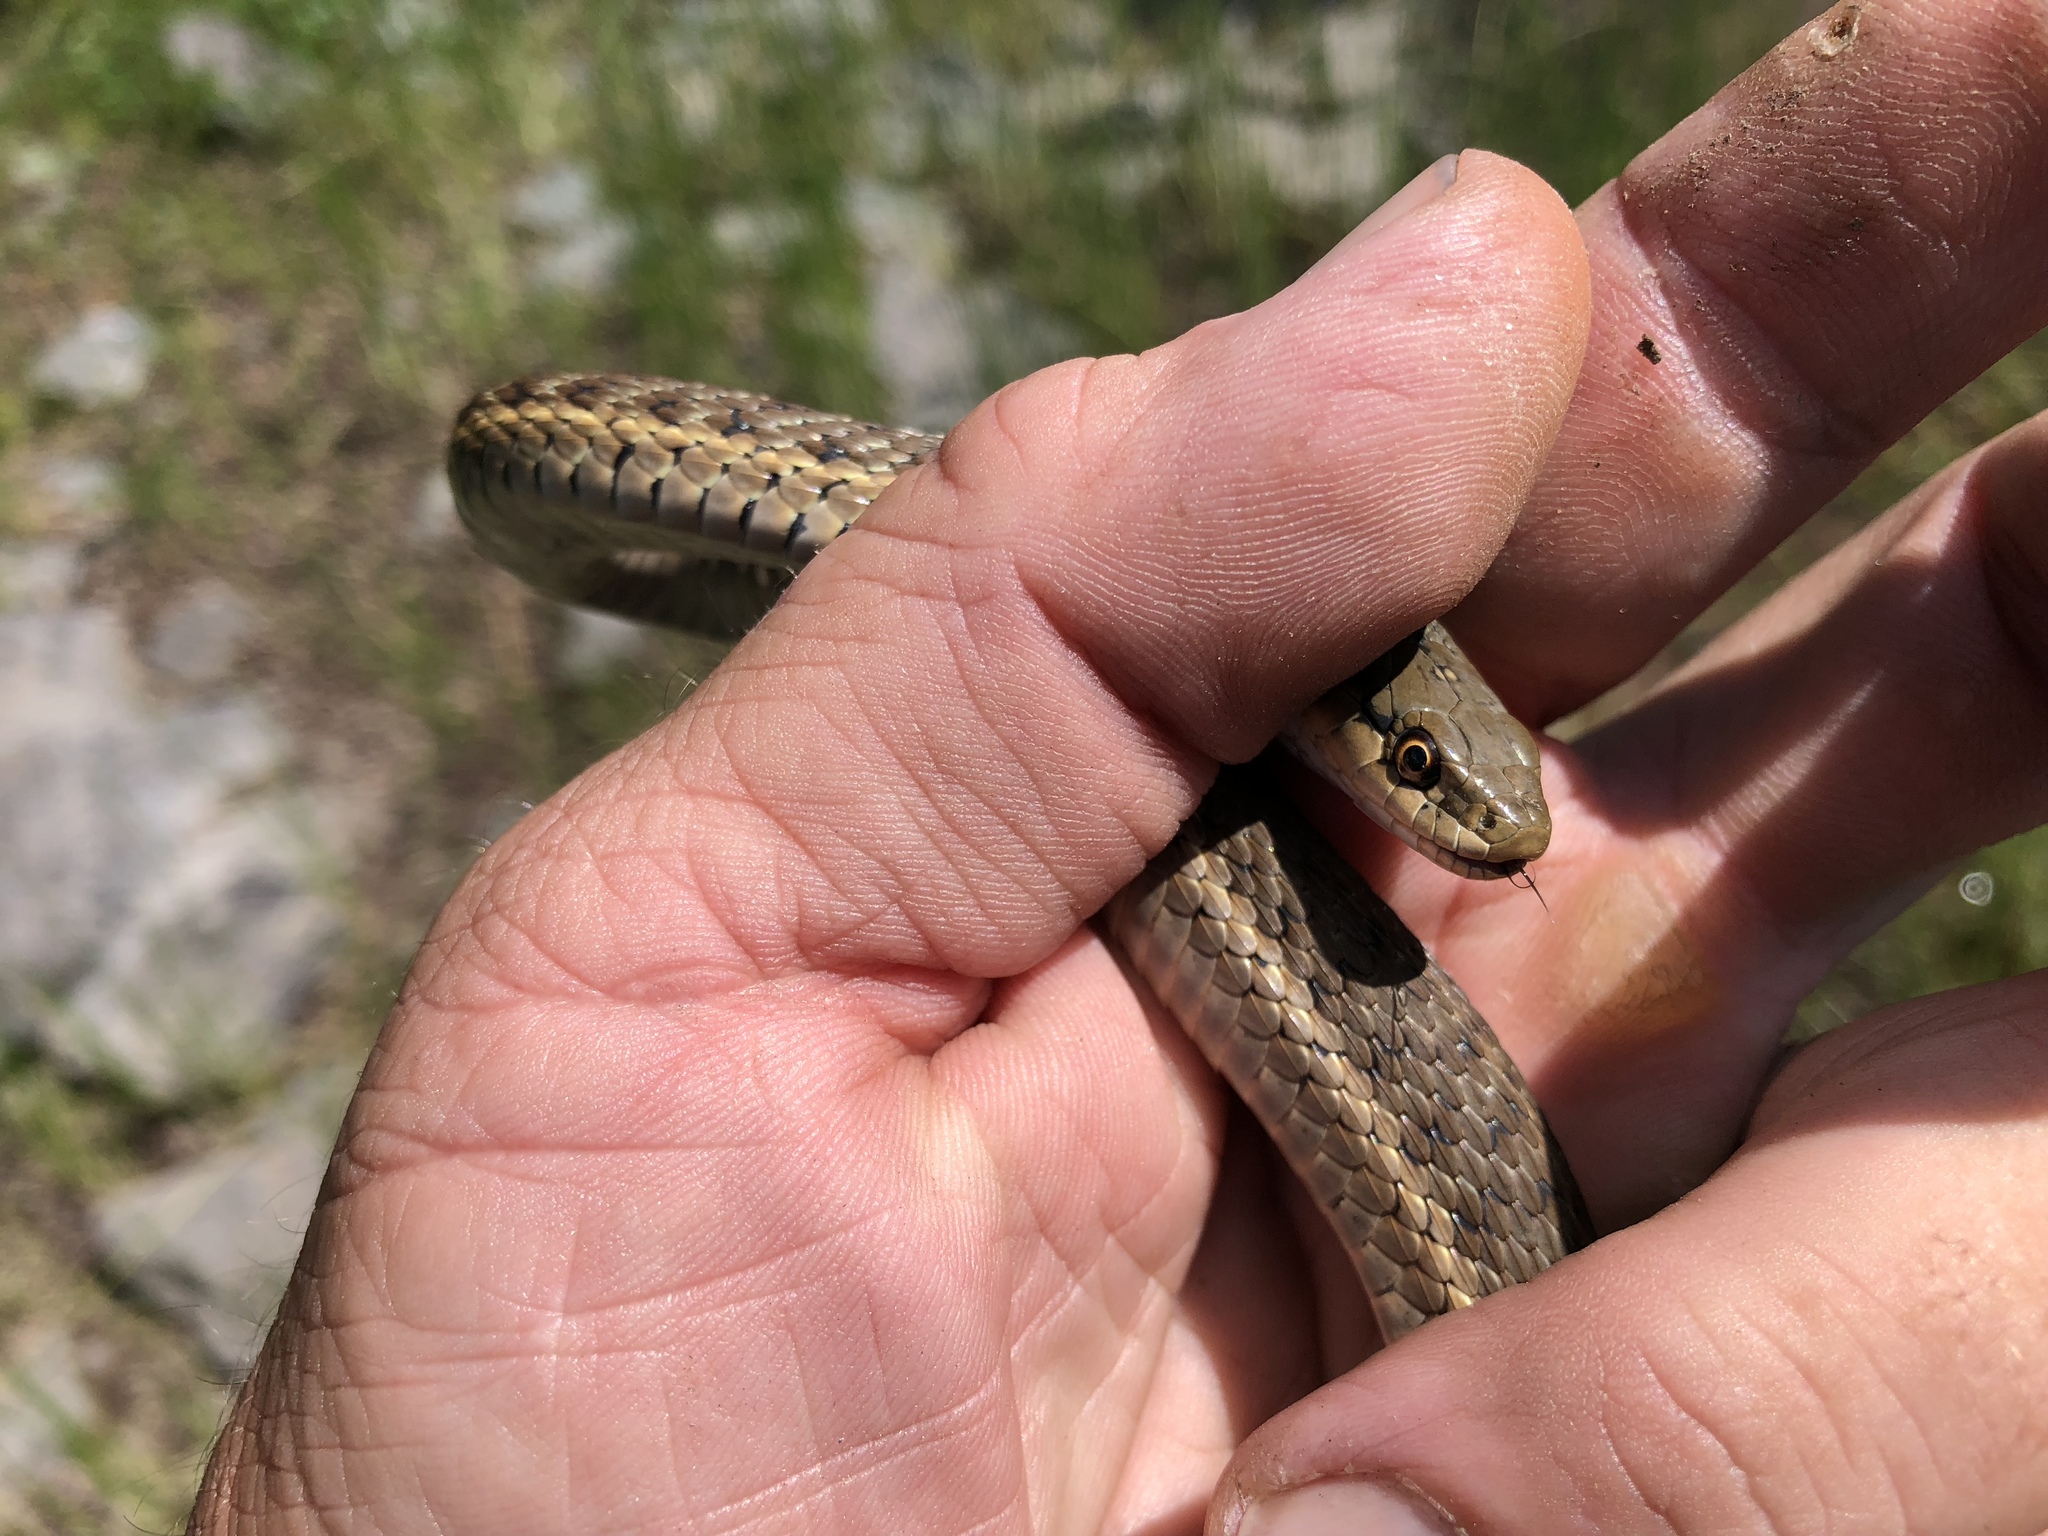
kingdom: Animalia
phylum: Chordata
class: Squamata
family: Colubridae
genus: Thamnophis
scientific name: Thamnophis elegans
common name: Western terrestrial garter snake
